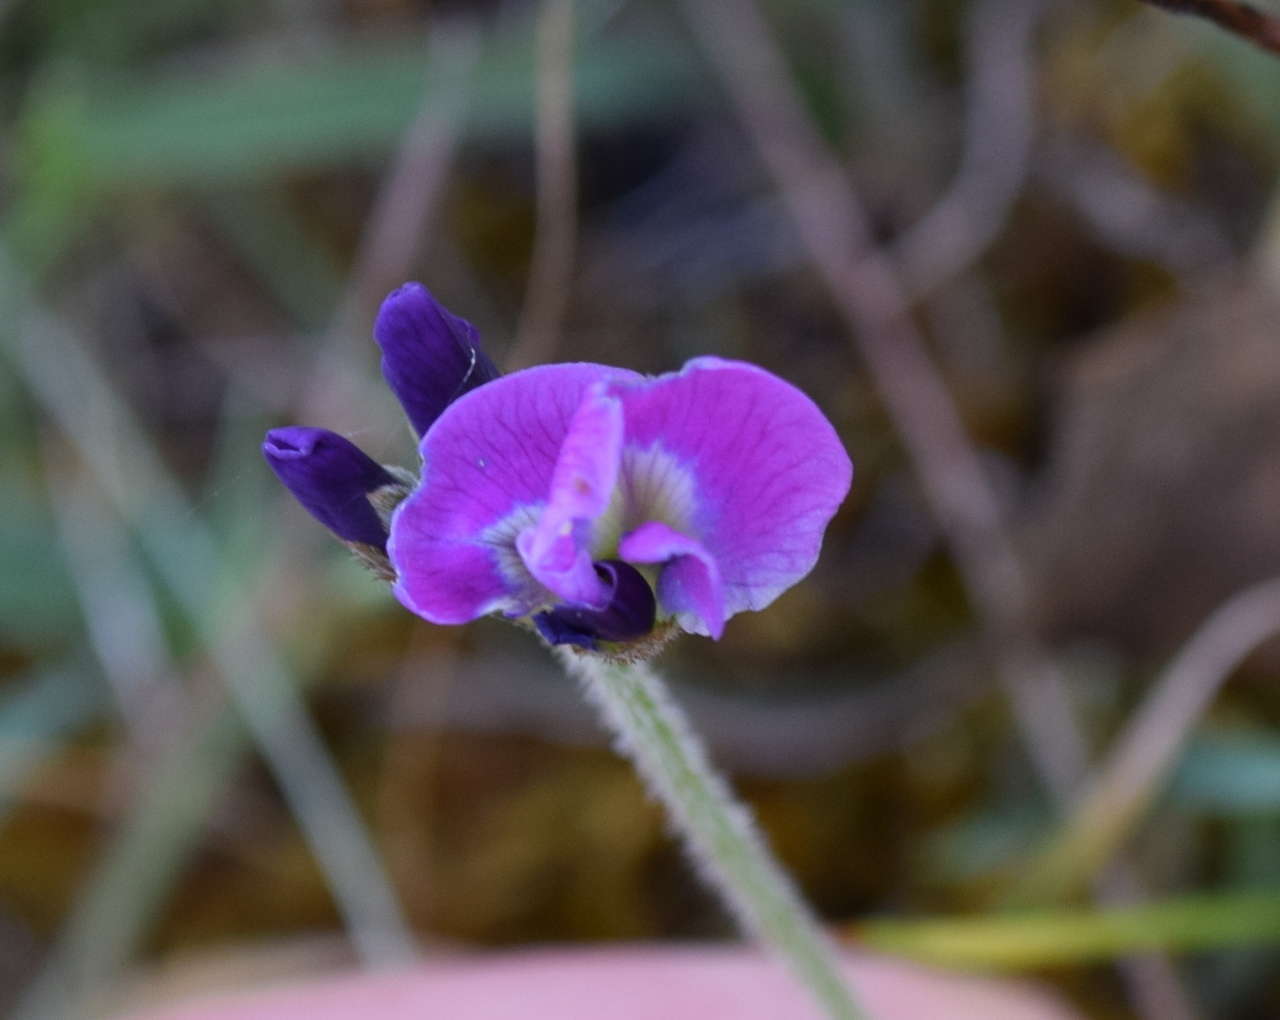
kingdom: Plantae
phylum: Tracheophyta
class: Magnoliopsida
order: Fabales
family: Fabaceae
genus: Glycine
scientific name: Glycine latrobeana
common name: Clover glycine
